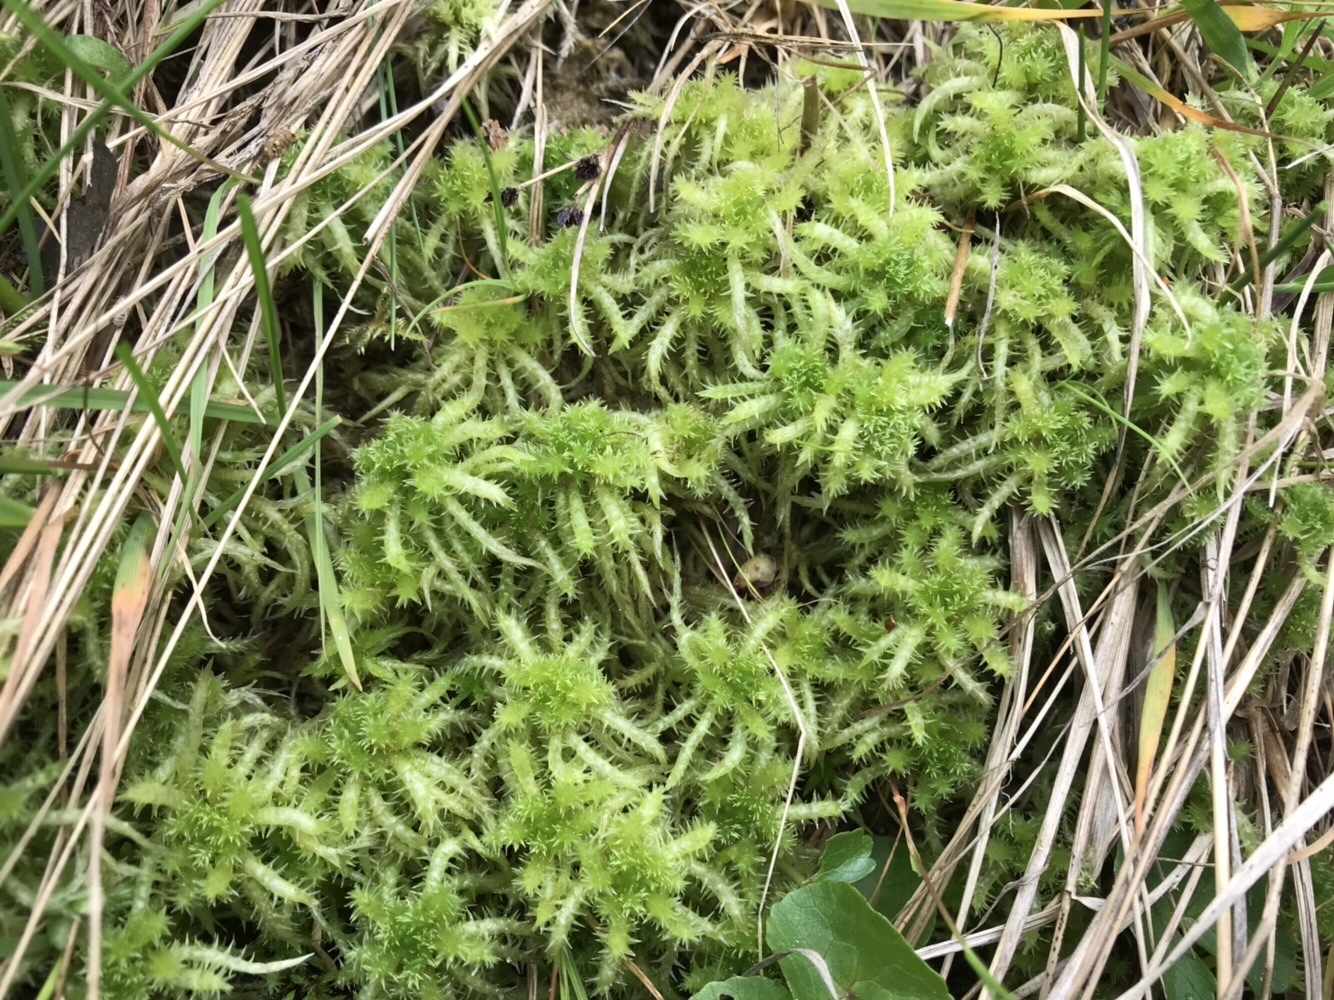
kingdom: Plantae
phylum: Bryophyta
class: Sphagnopsida
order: Sphagnales
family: Sphagnaceae
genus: Sphagnum
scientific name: Sphagnum squarrosum
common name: Shaggy peat moss
